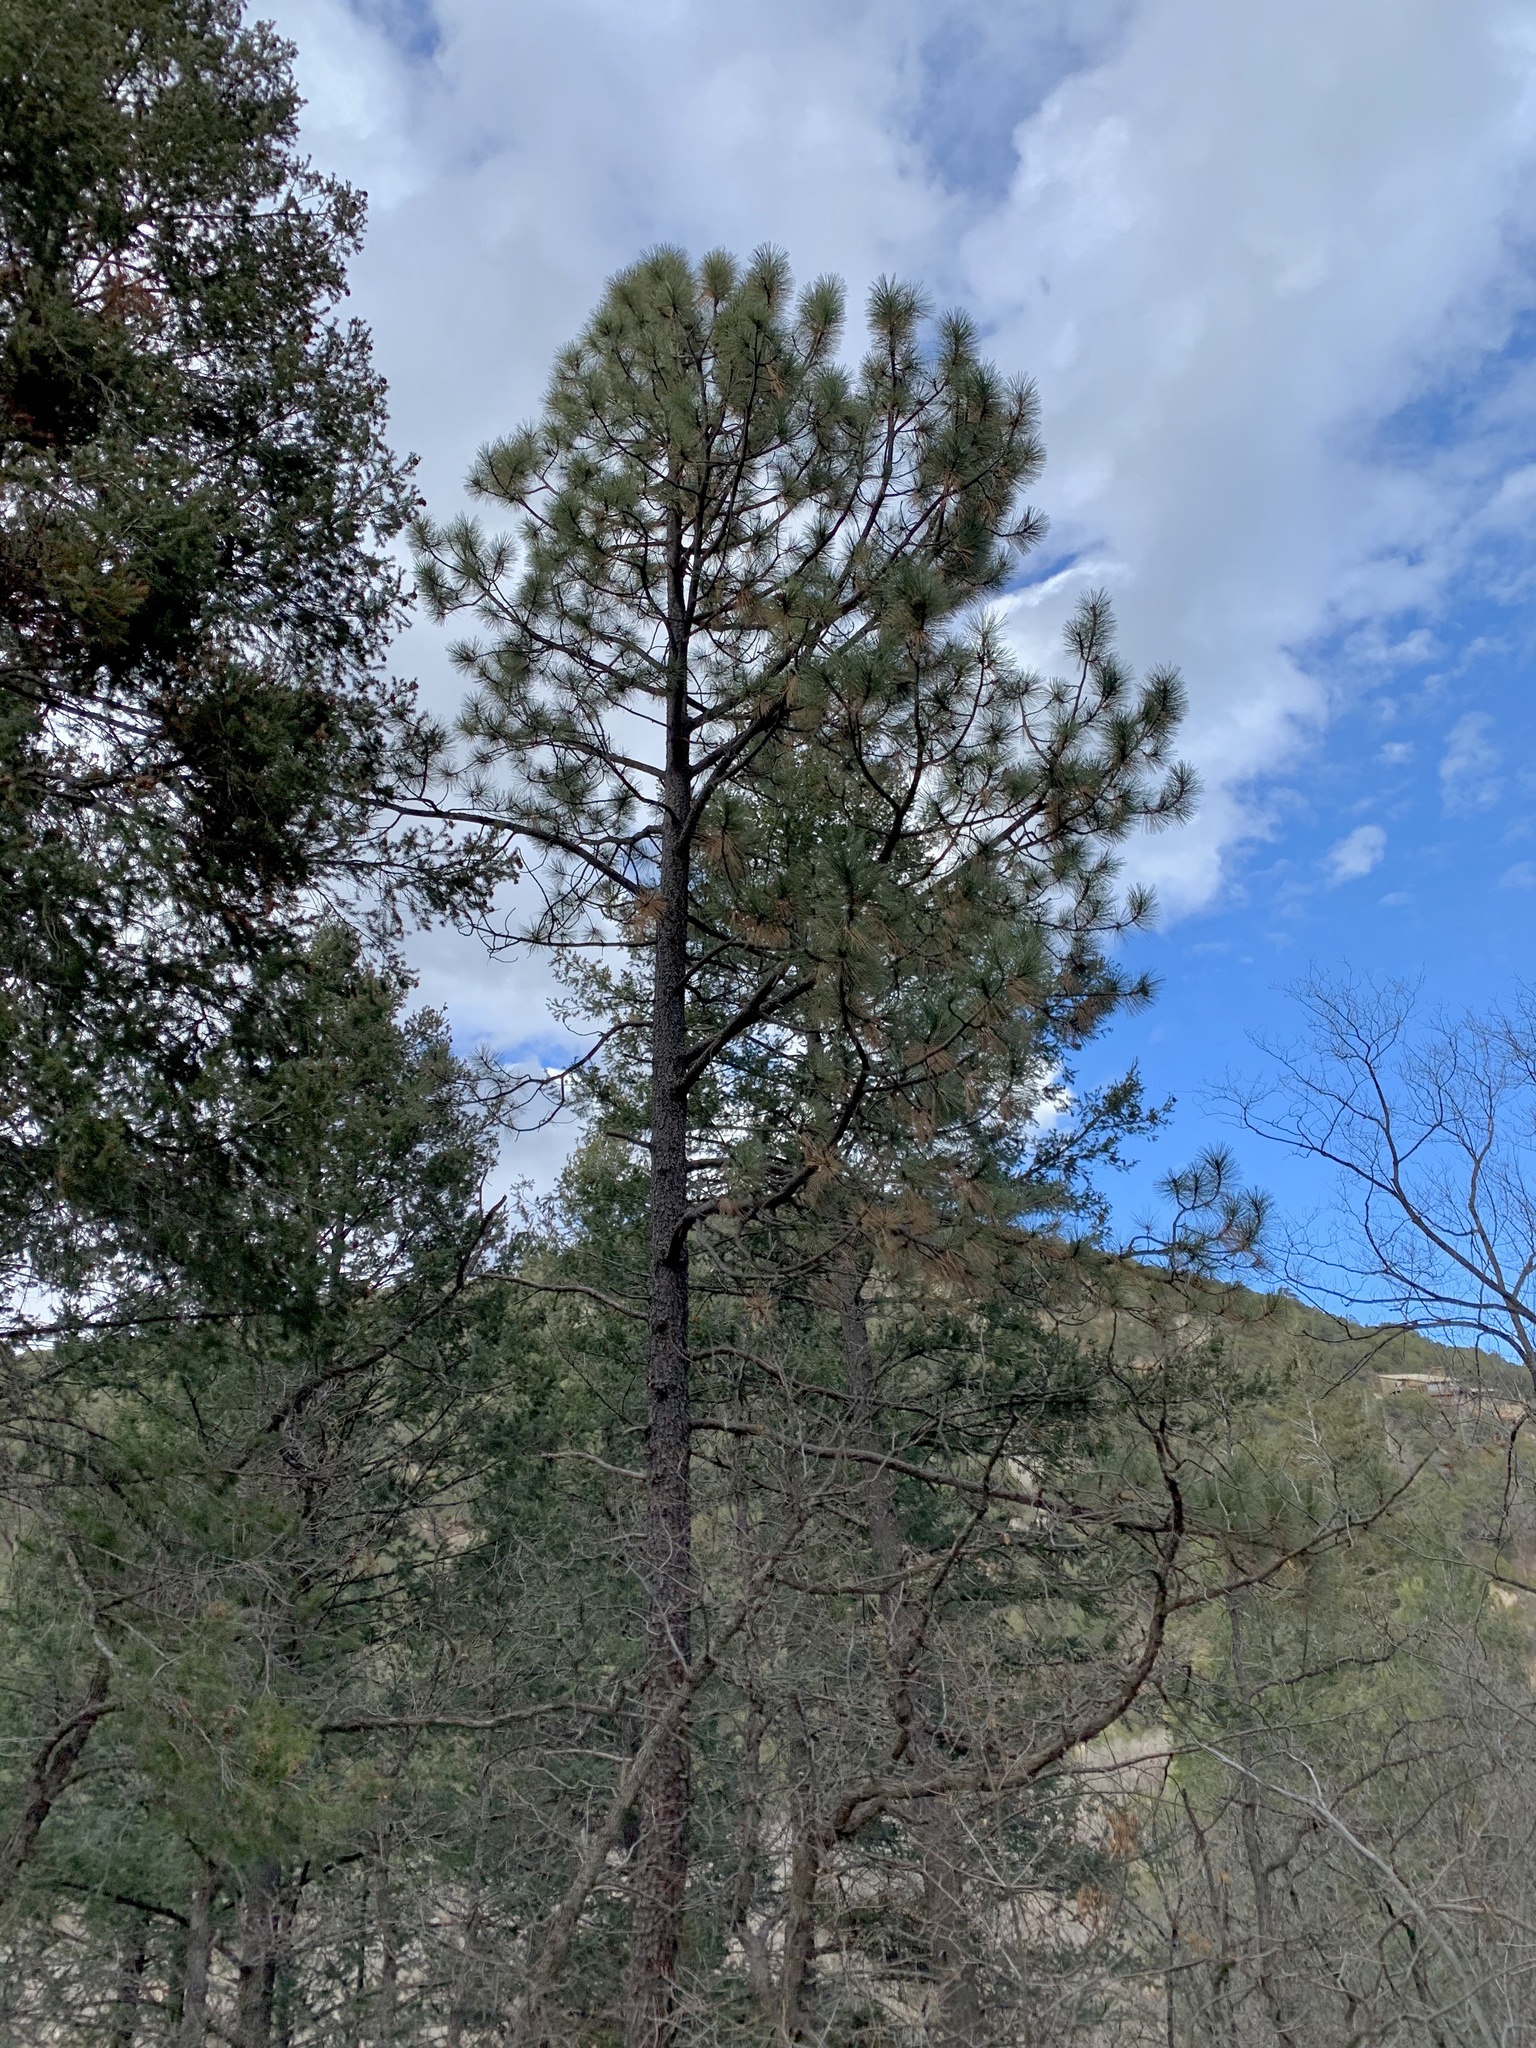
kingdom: Plantae
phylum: Tracheophyta
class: Pinopsida
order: Pinales
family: Pinaceae
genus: Pinus
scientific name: Pinus ponderosa
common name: Western yellow-pine
